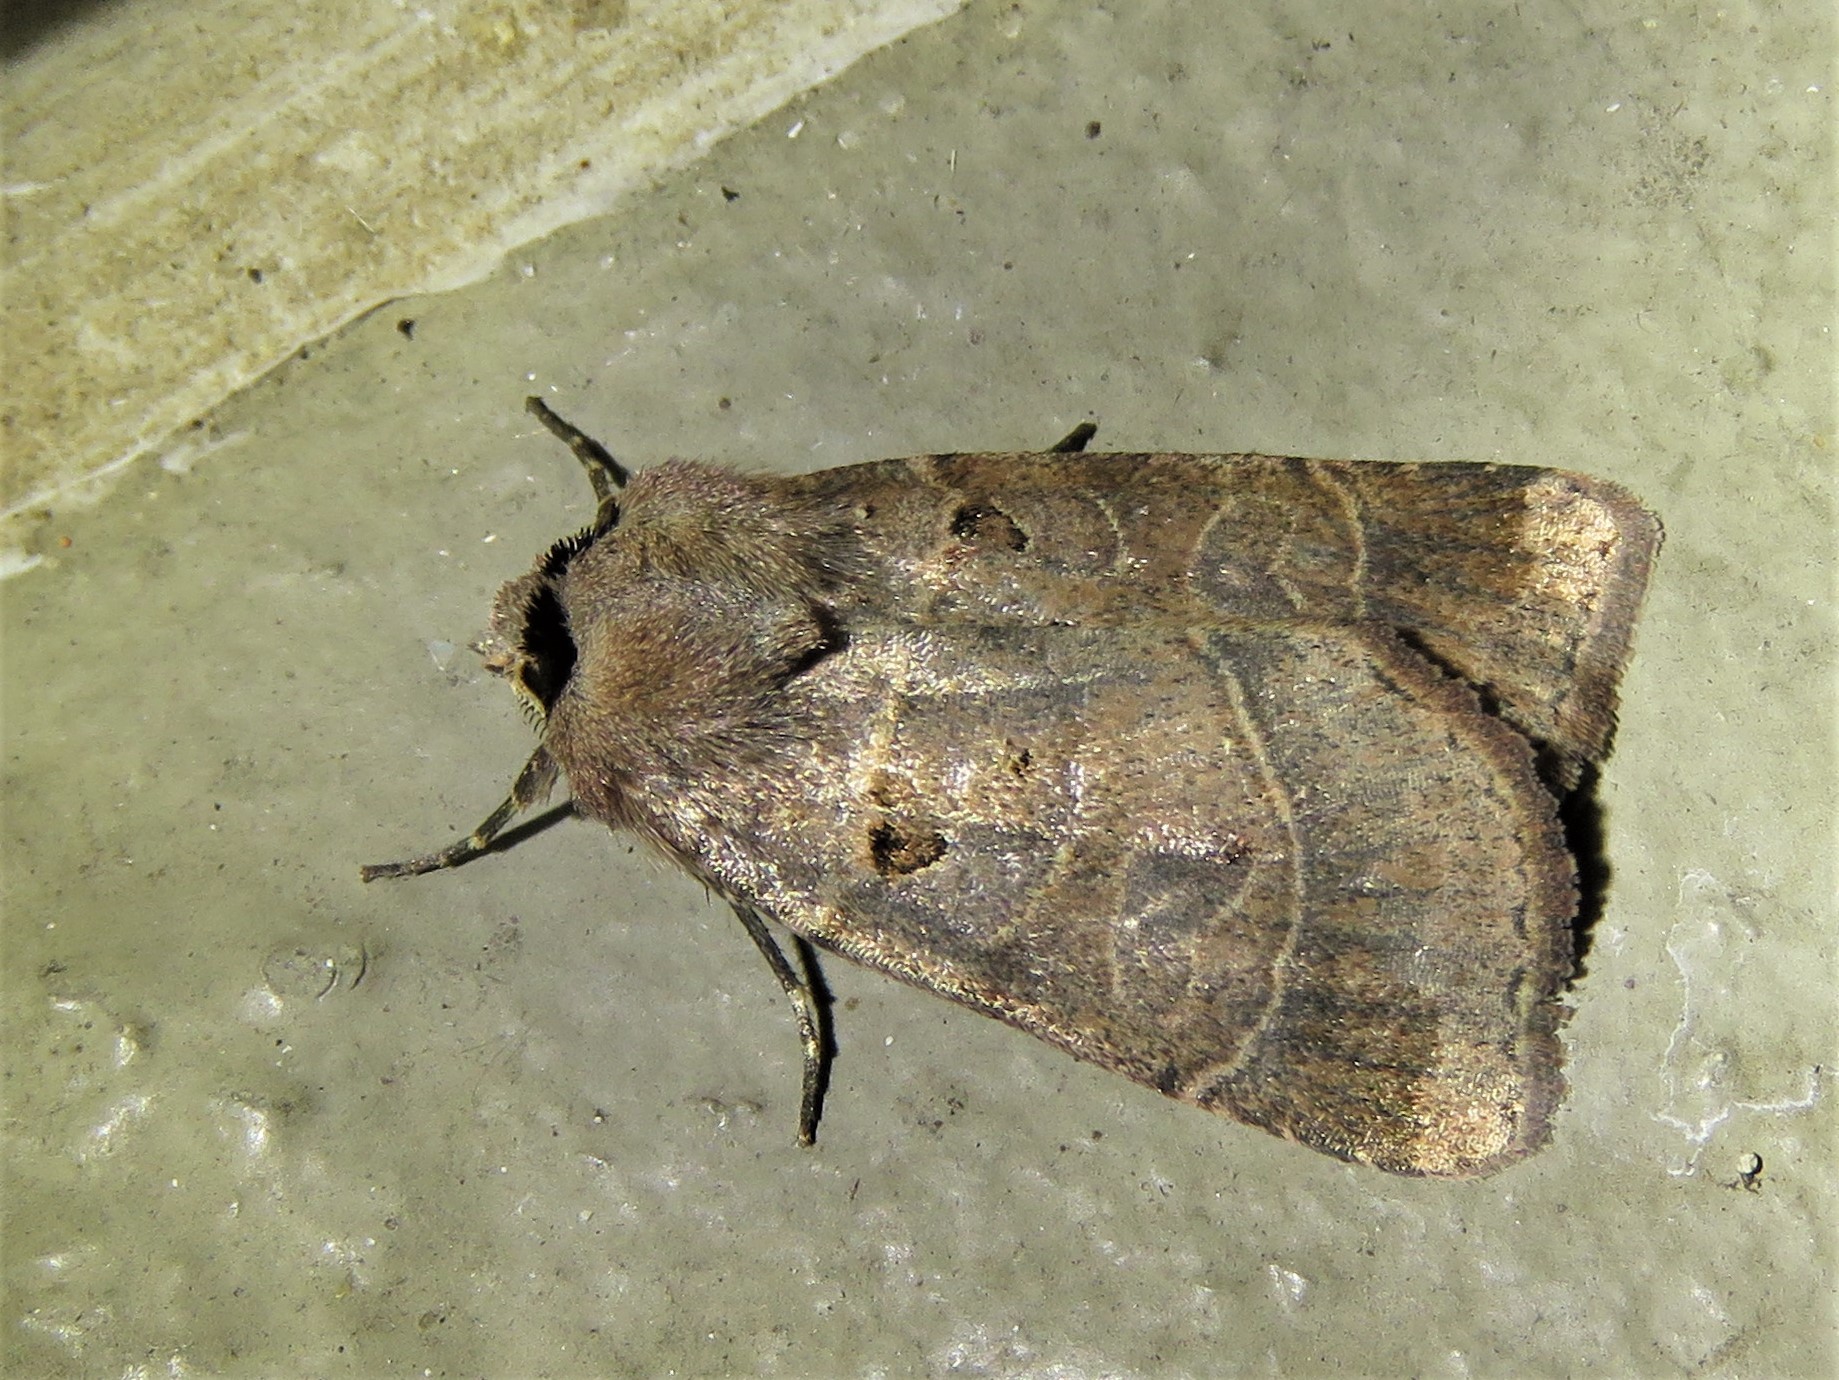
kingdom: Animalia
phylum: Arthropoda
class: Insecta
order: Lepidoptera
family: Noctuidae
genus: Agnorisma
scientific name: Agnorisma badinodis
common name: Pale-banded dart
